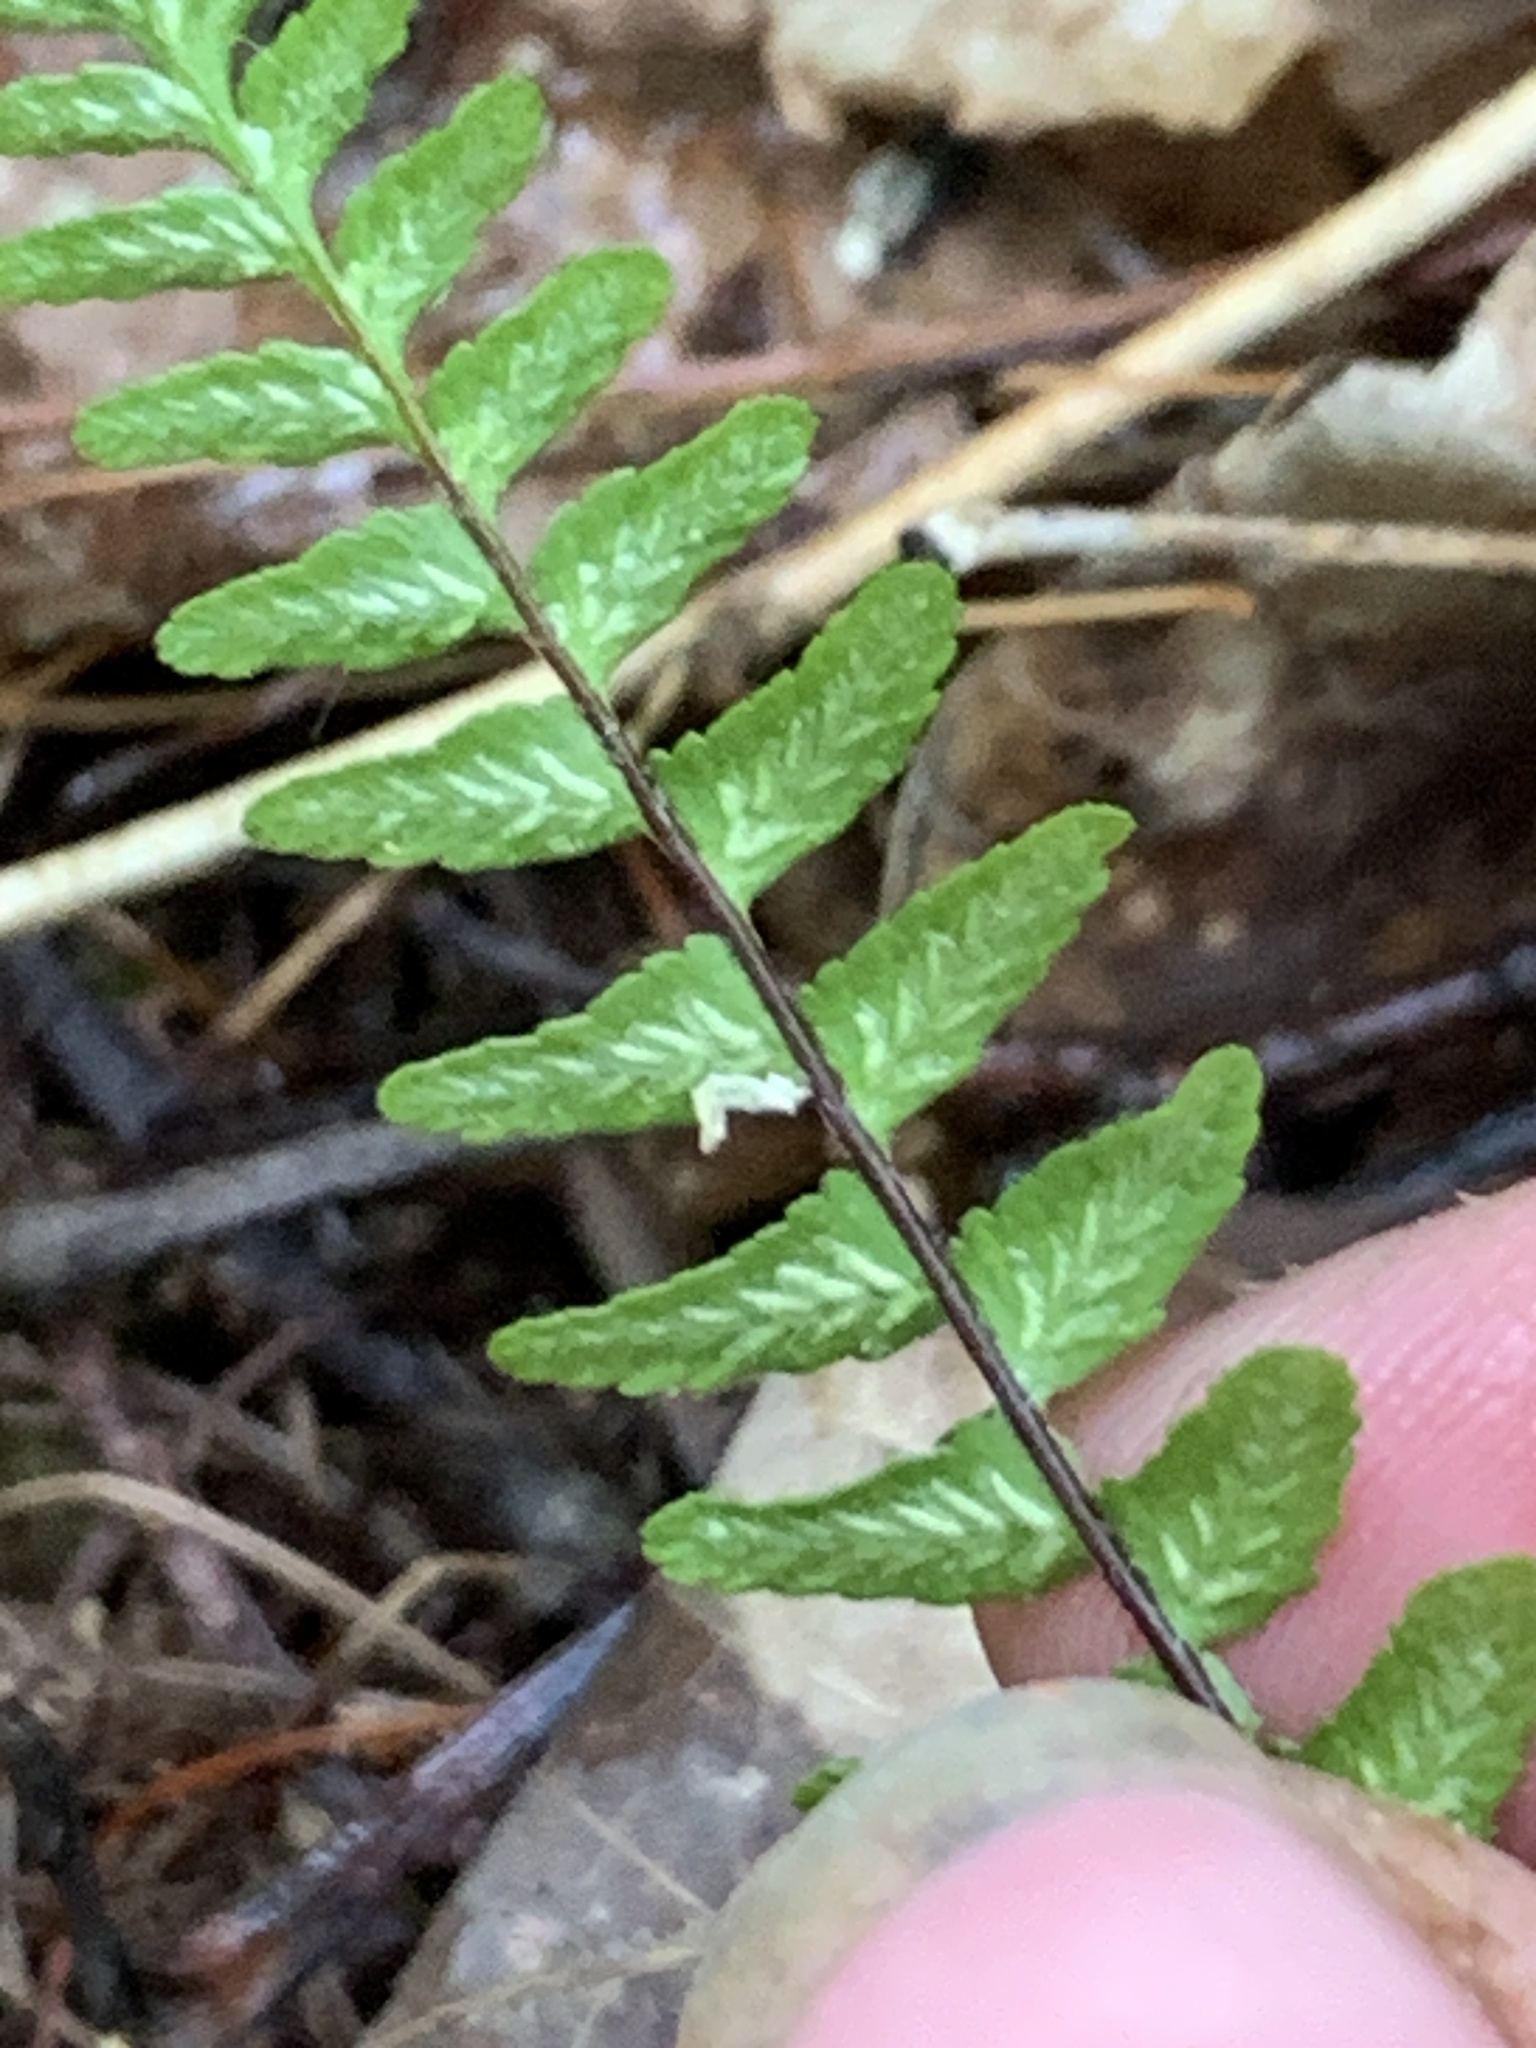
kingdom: Plantae
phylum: Tracheophyta
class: Polypodiopsida
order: Polypodiales
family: Aspleniaceae
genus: Asplenium
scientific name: Asplenium platyneuron
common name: Ebony spleenwort
